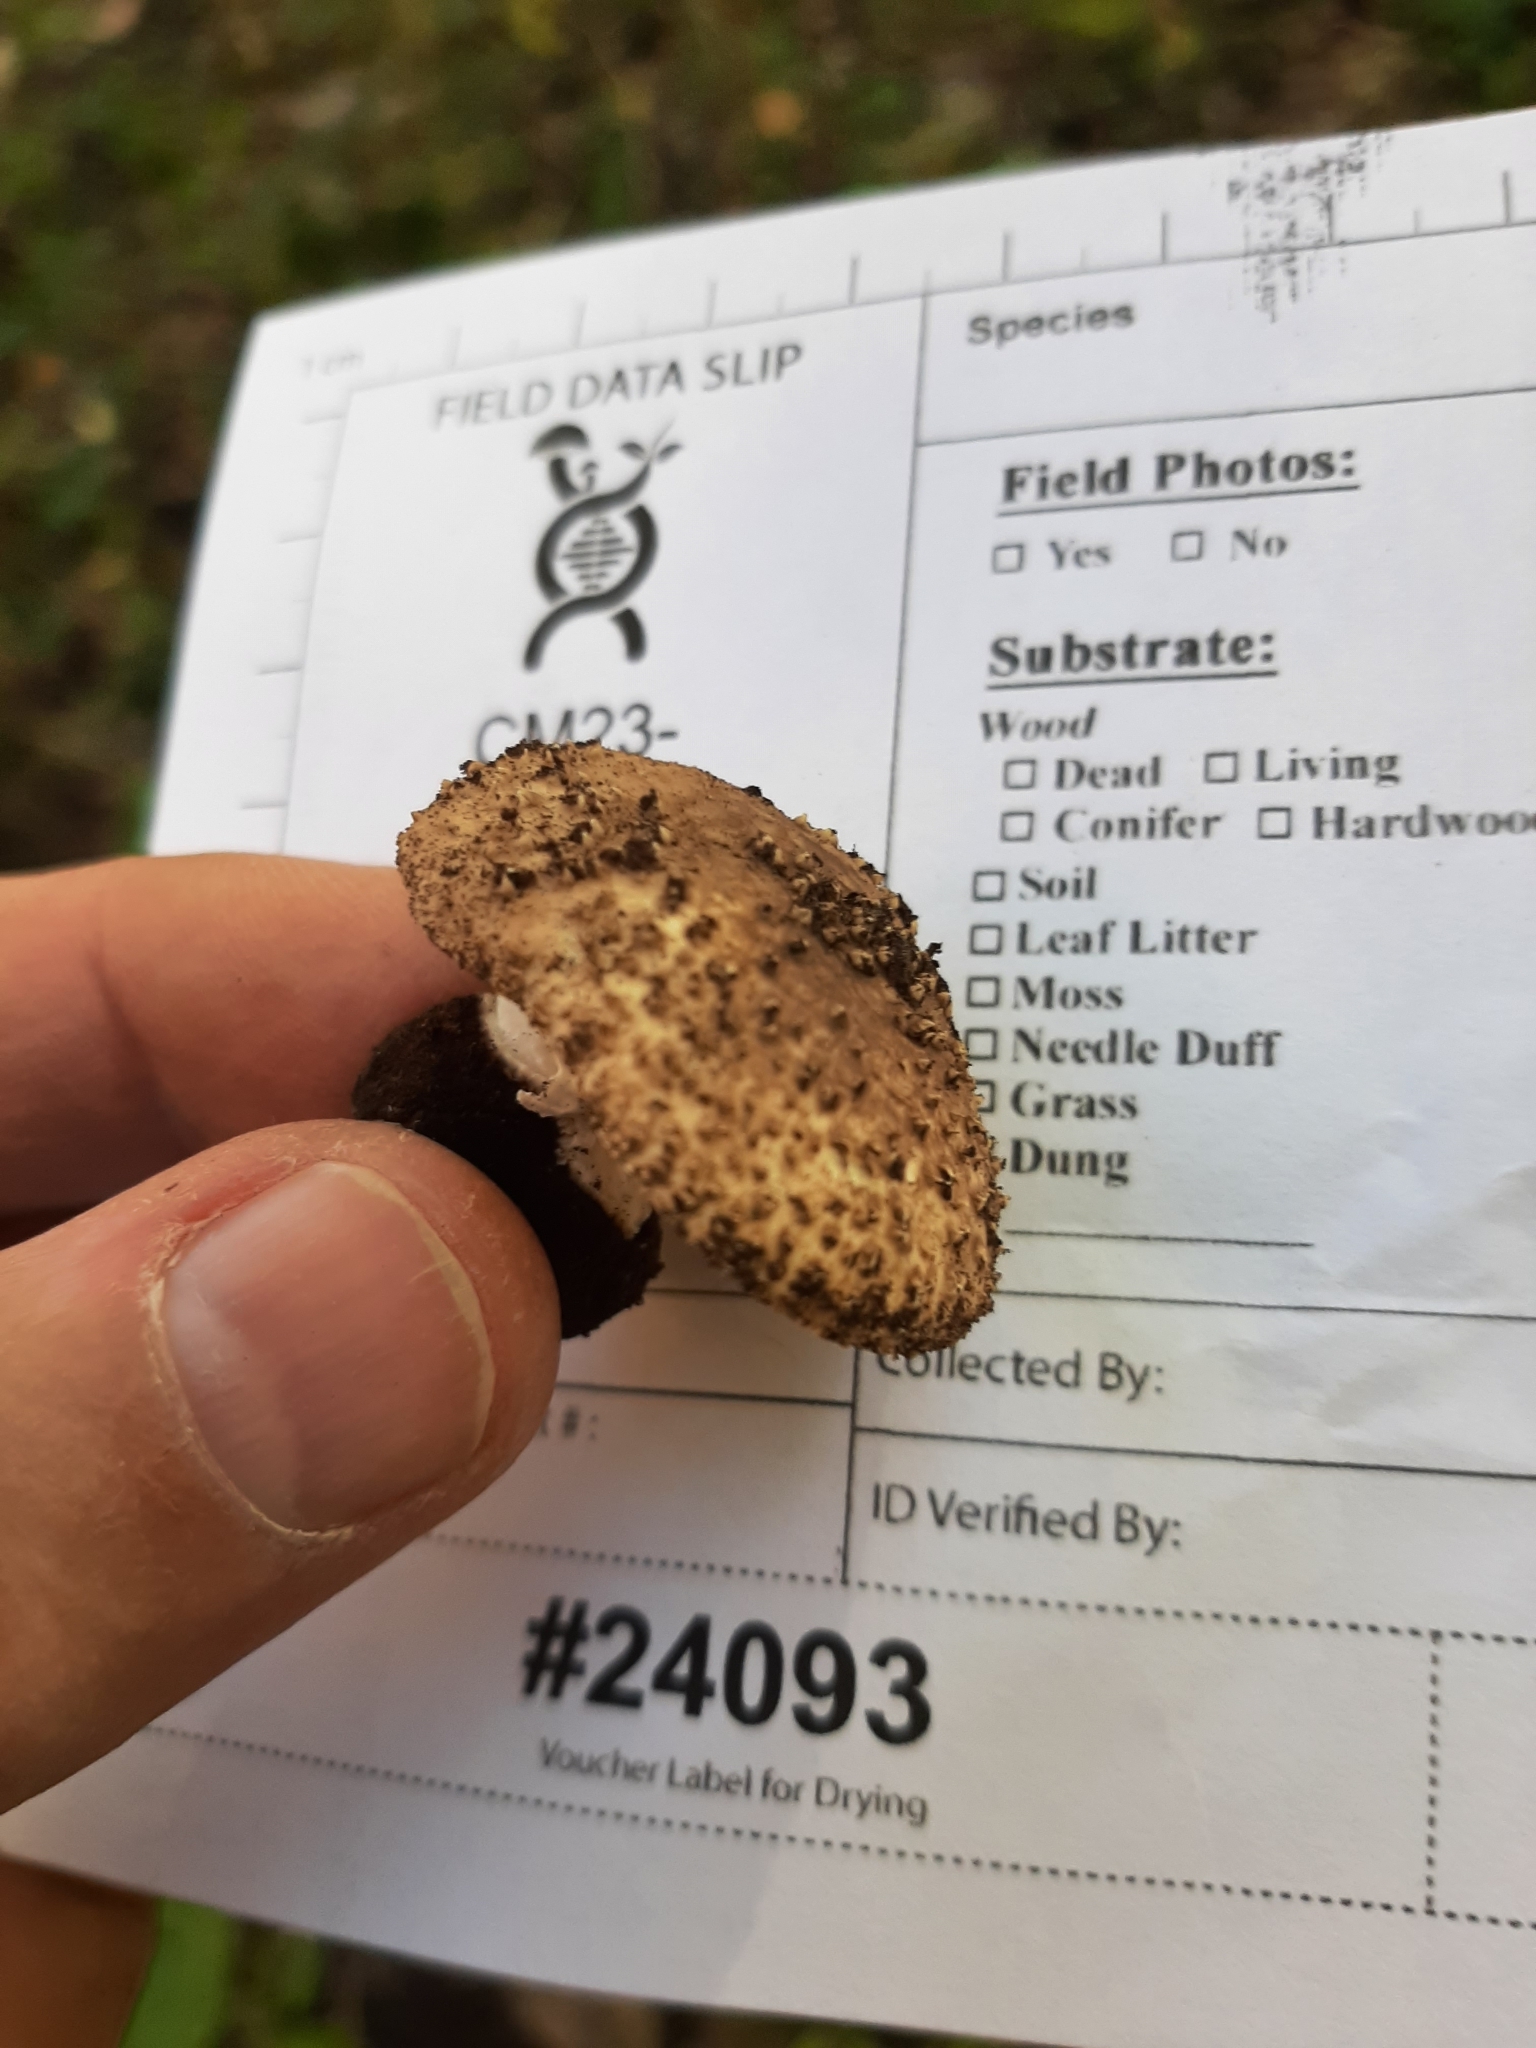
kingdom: Fungi
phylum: Basidiomycota
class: Agaricomycetes
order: Agaricales
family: Agaricaceae
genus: Echinoderma
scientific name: Echinoderma asperum
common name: Freckled dapperling
